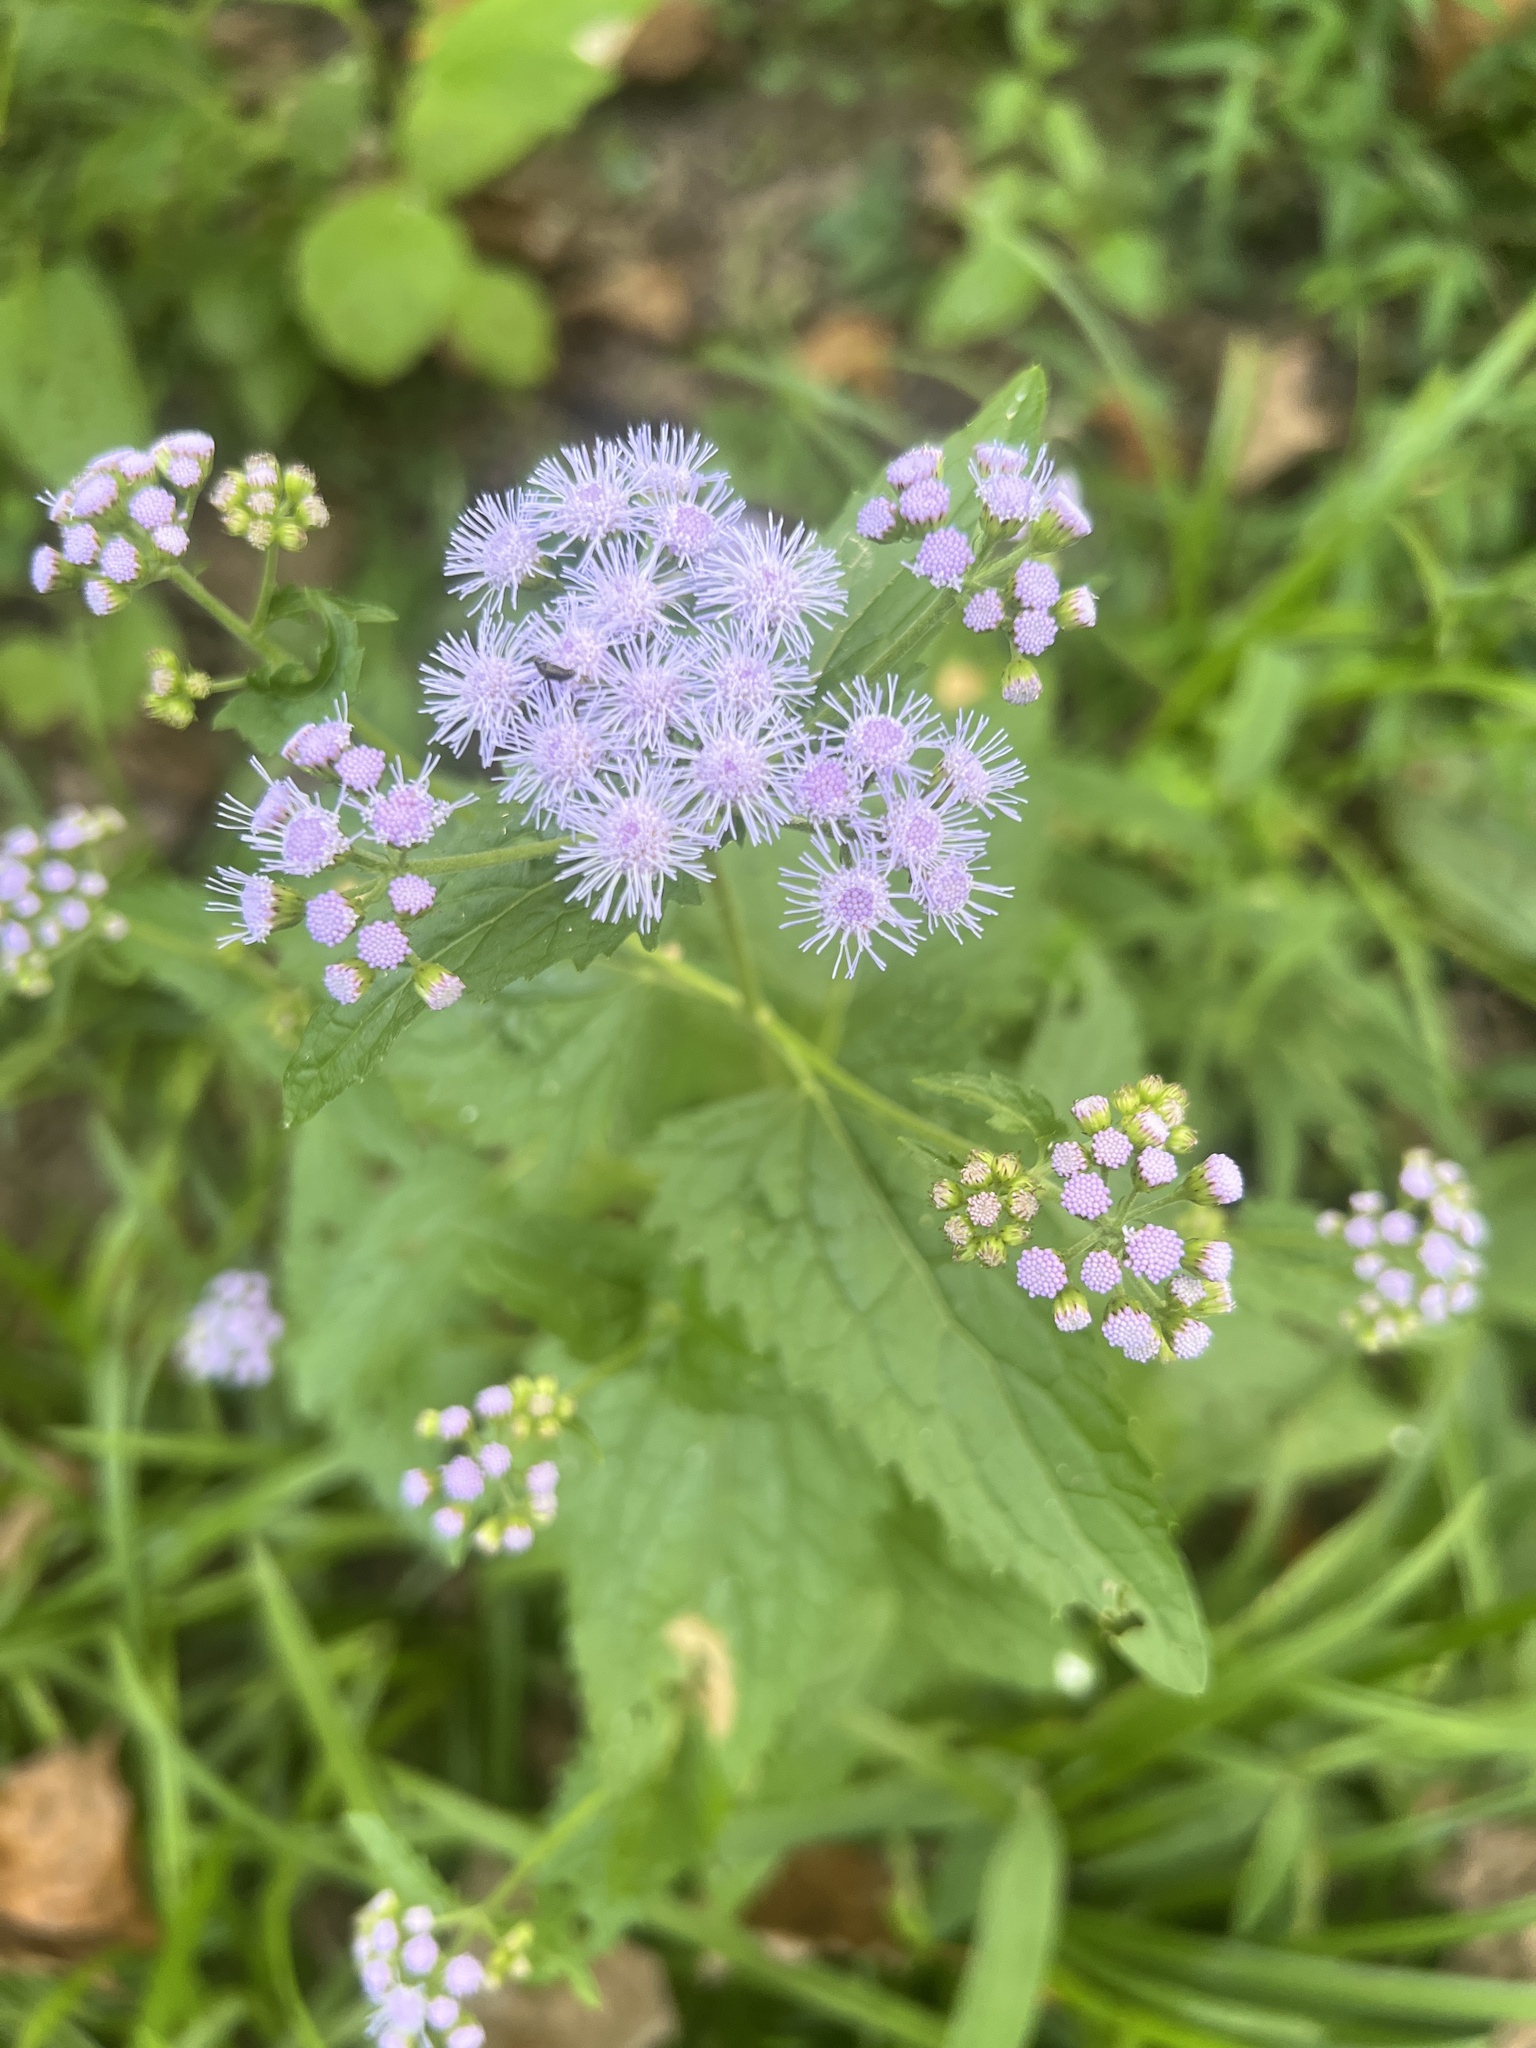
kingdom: Plantae
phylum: Tracheophyta
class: Magnoliopsida
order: Asterales
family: Asteraceae
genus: Conoclinium
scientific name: Conoclinium coelestinum
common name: Blue mistflower
